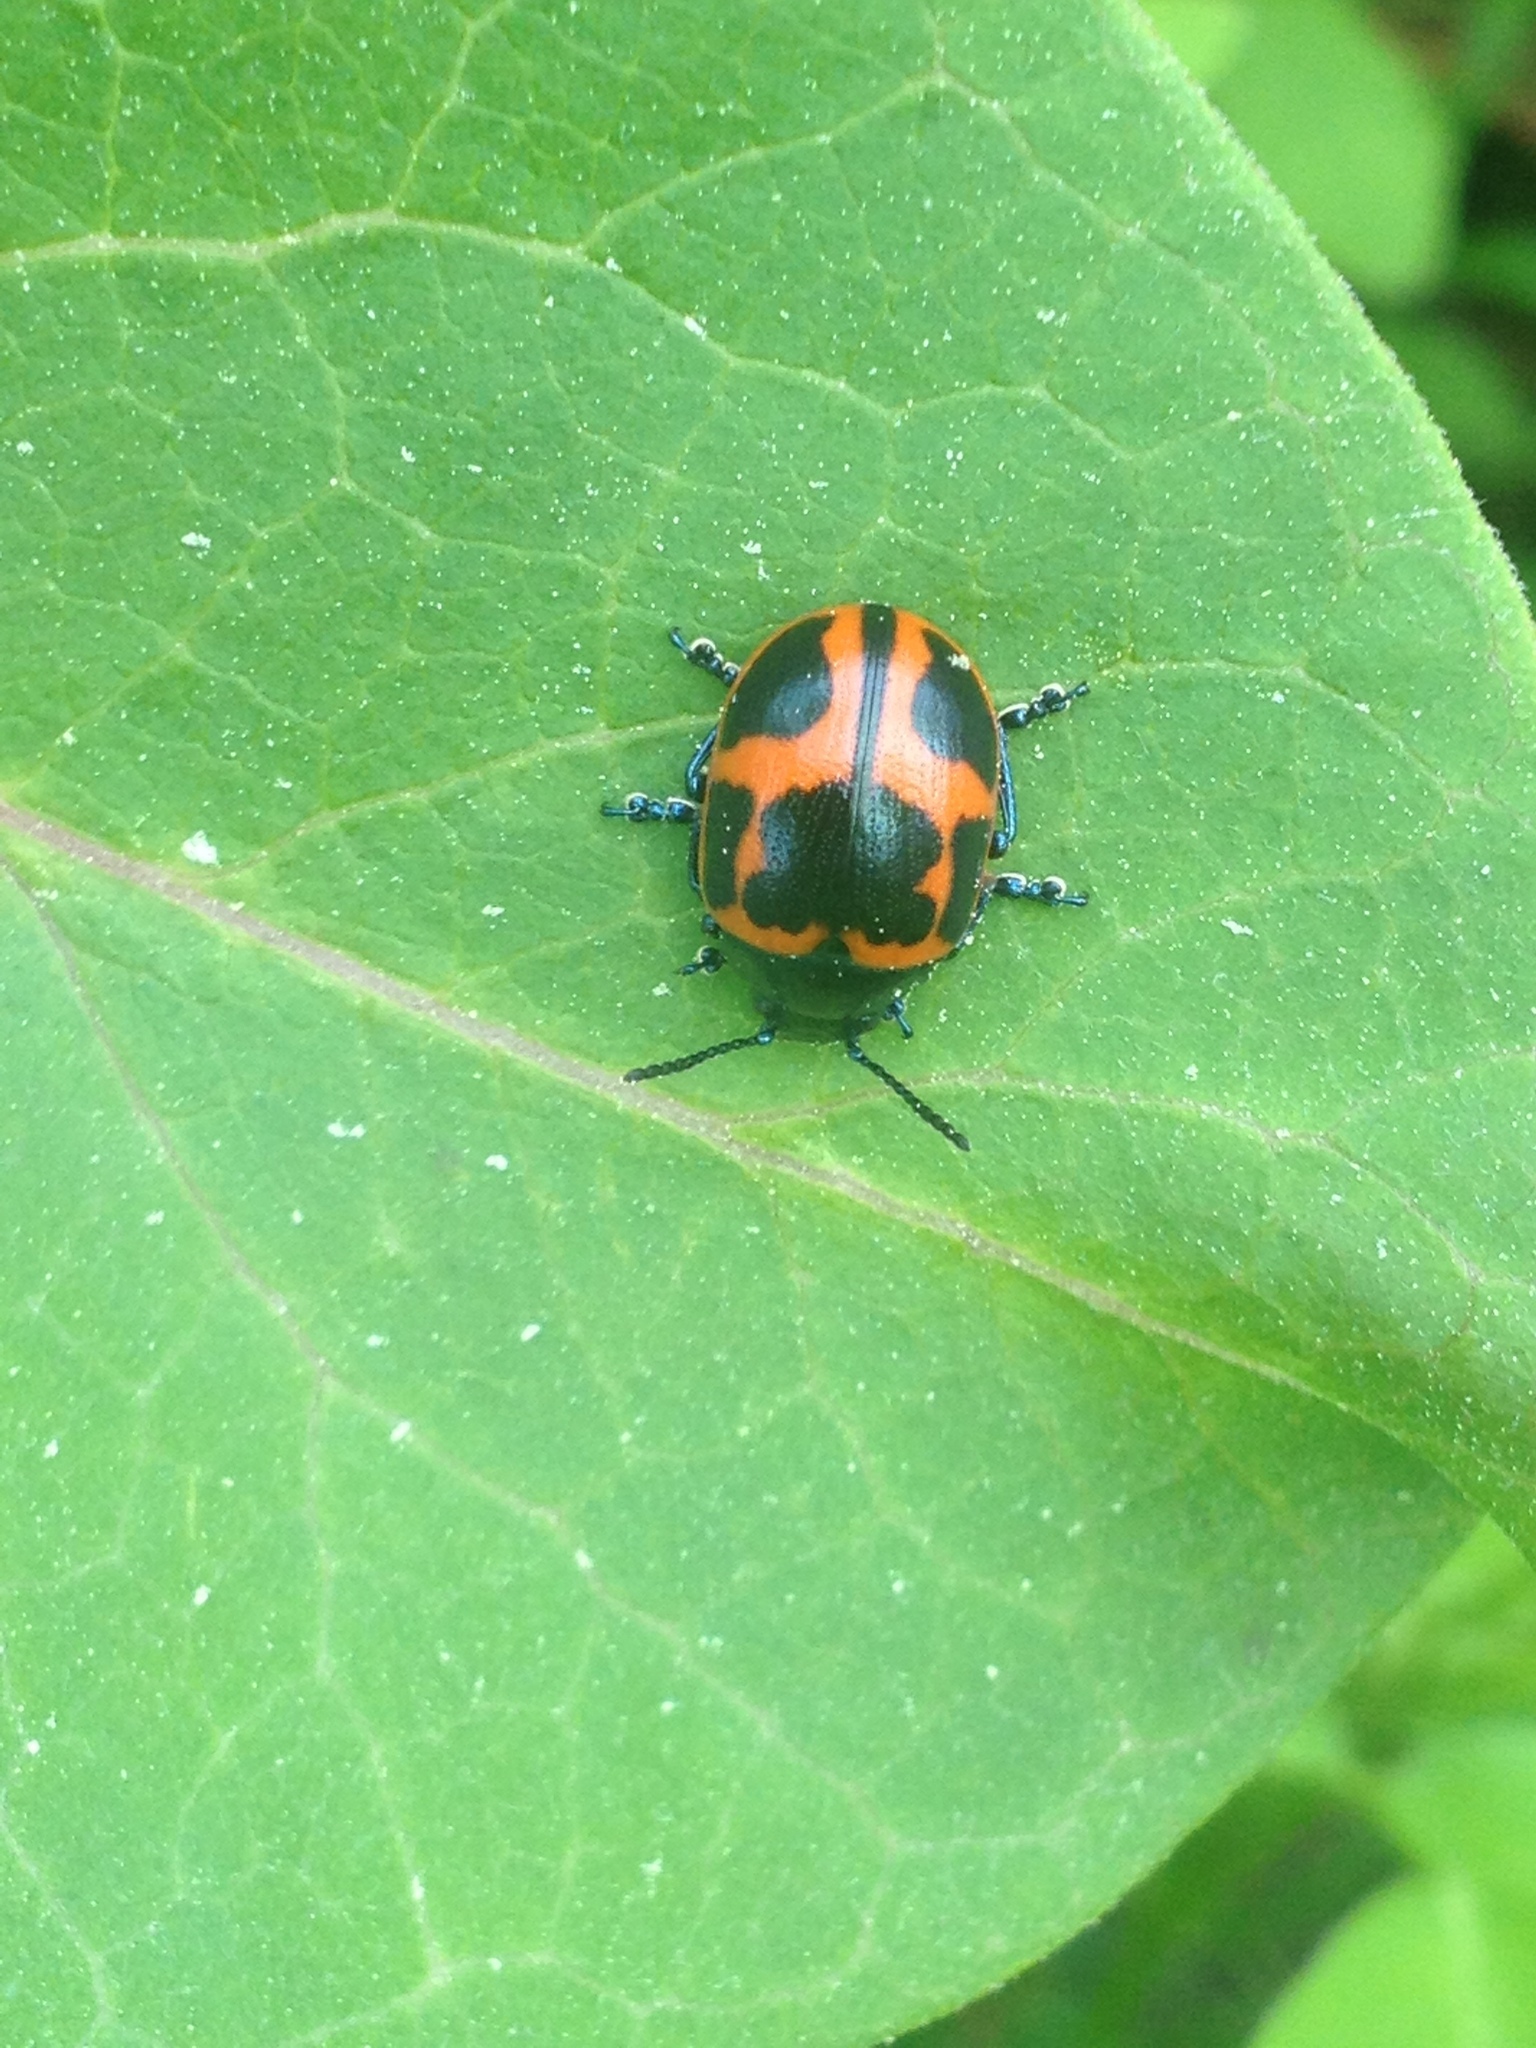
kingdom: Animalia
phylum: Arthropoda
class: Insecta
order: Coleoptera
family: Chrysomelidae
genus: Labidomera
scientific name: Labidomera clivicollis
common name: Swamp milkweed leaf beetle
